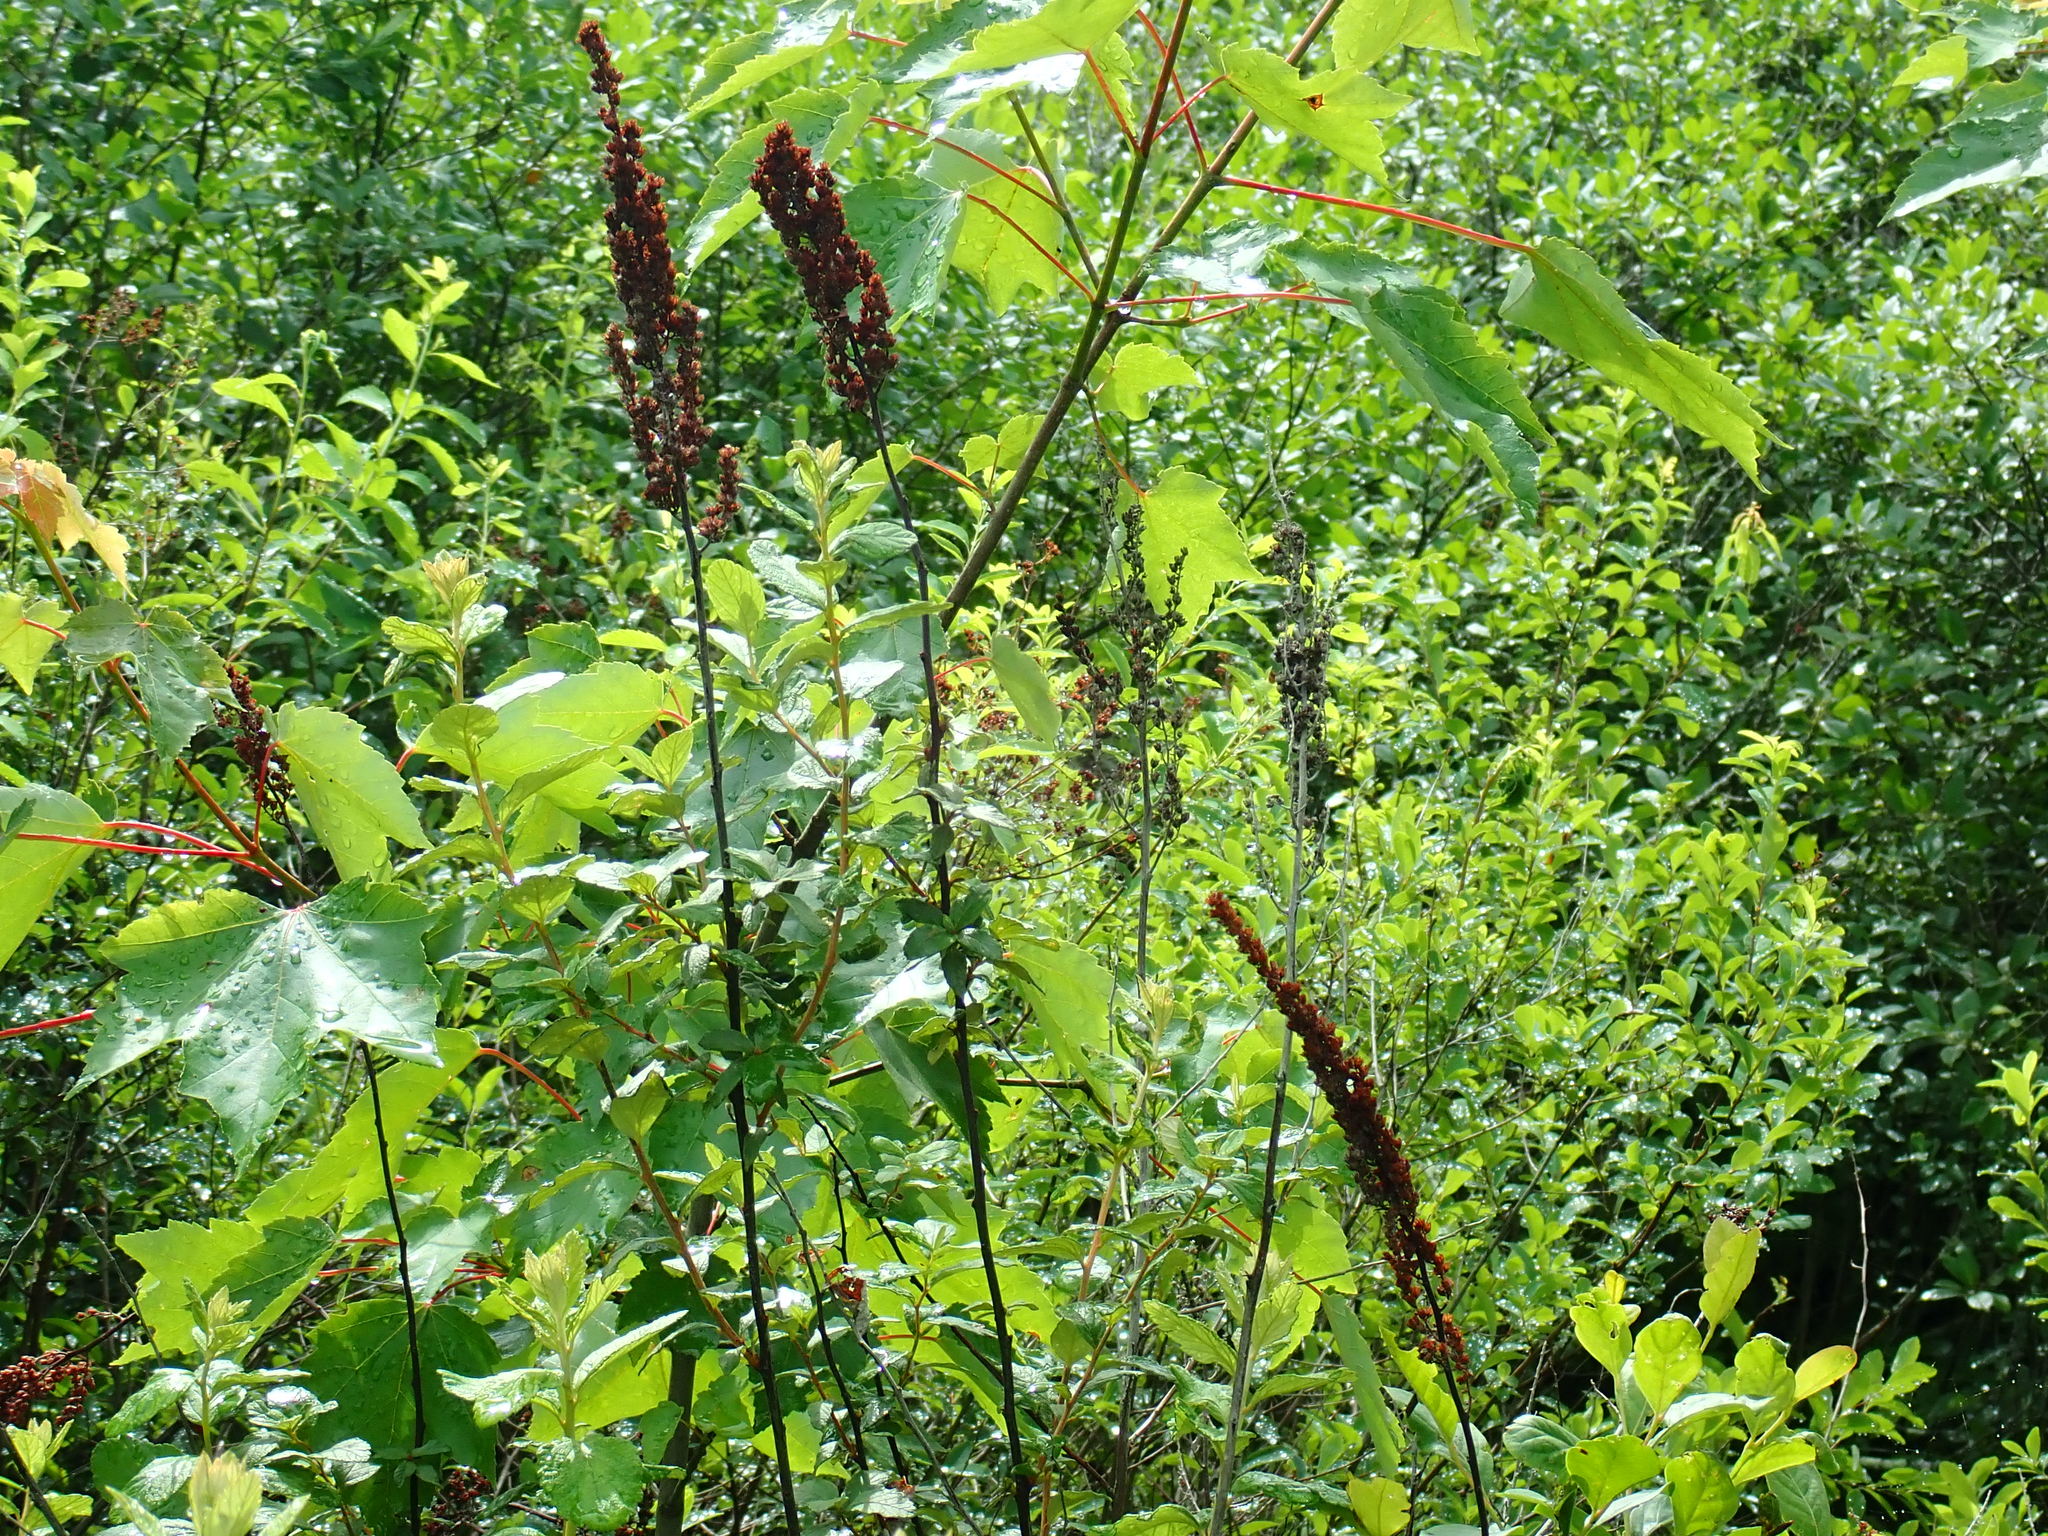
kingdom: Plantae
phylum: Tracheophyta
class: Magnoliopsida
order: Rosales
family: Rosaceae
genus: Spiraea
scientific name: Spiraea tomentosa
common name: Hardhack
